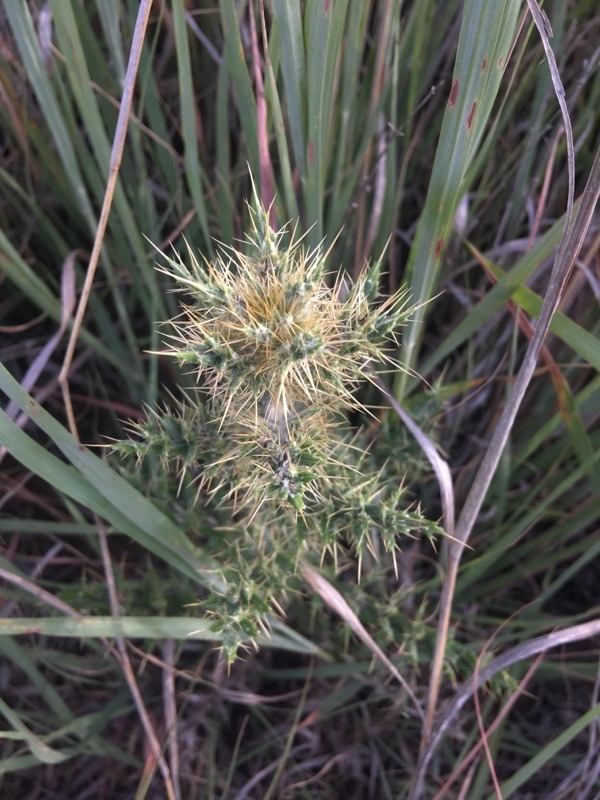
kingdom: Plantae
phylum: Tracheophyta
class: Magnoliopsida
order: Asterales
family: Asteraceae
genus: Cirsium
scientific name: Cirsium ochrocentrum
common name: Yellow-spine thistle
